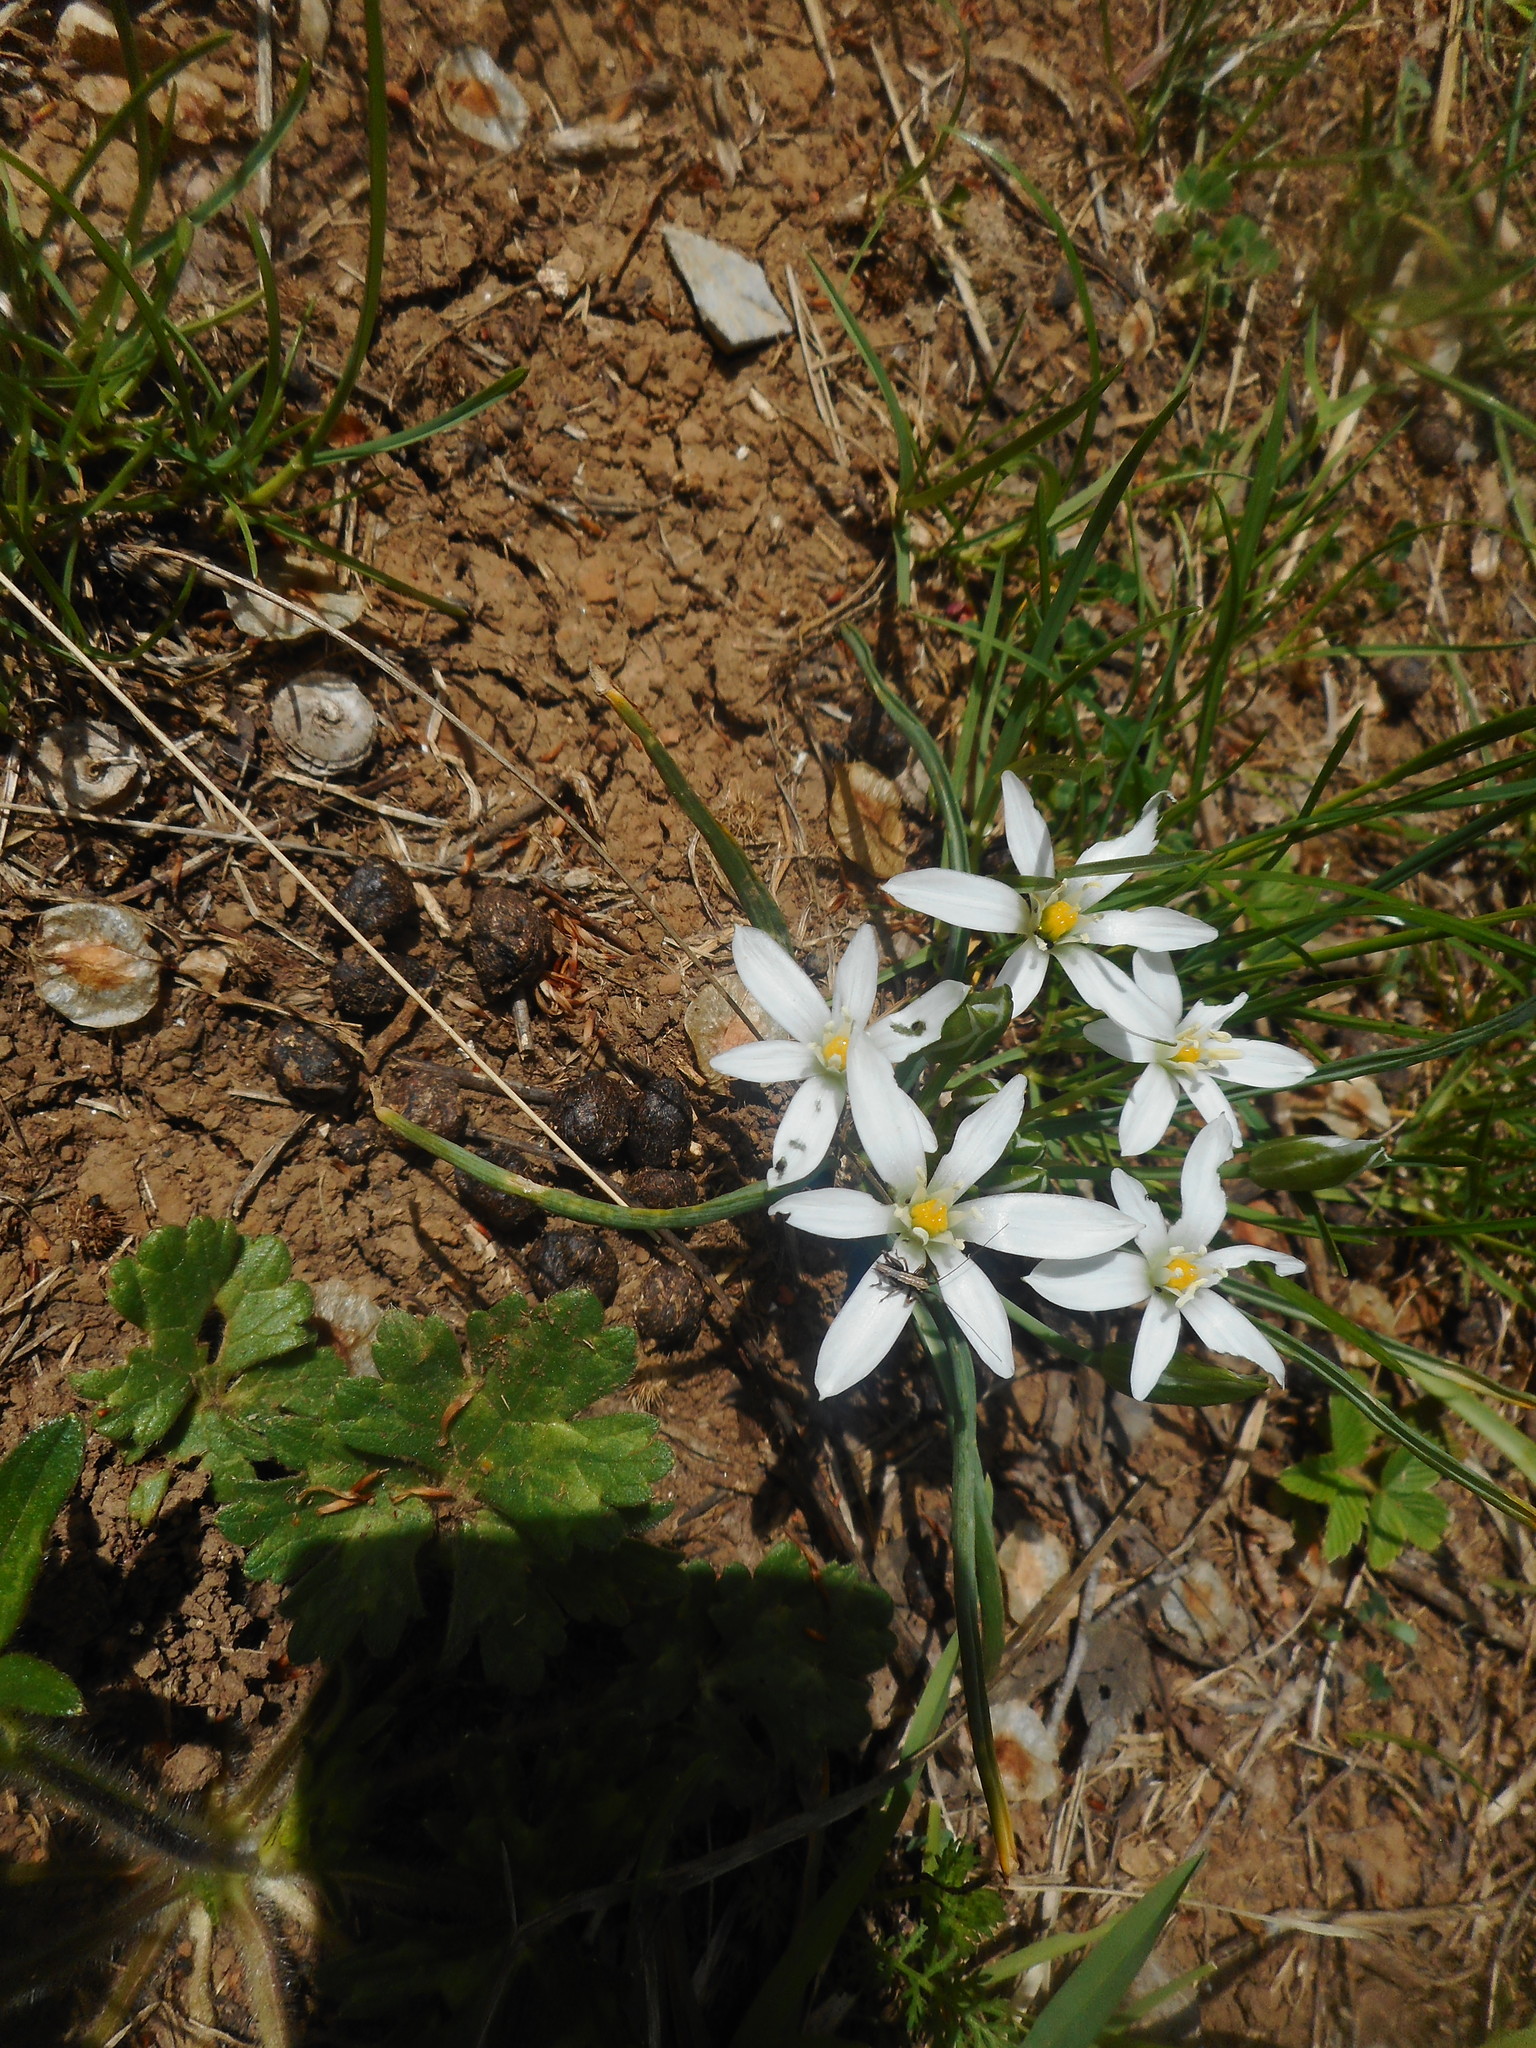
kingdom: Plantae
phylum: Tracheophyta
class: Liliopsida
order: Asparagales
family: Asparagaceae
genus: Ornithogalum
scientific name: Ornithogalum umbellatum
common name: Garden star-of-bethlehem
